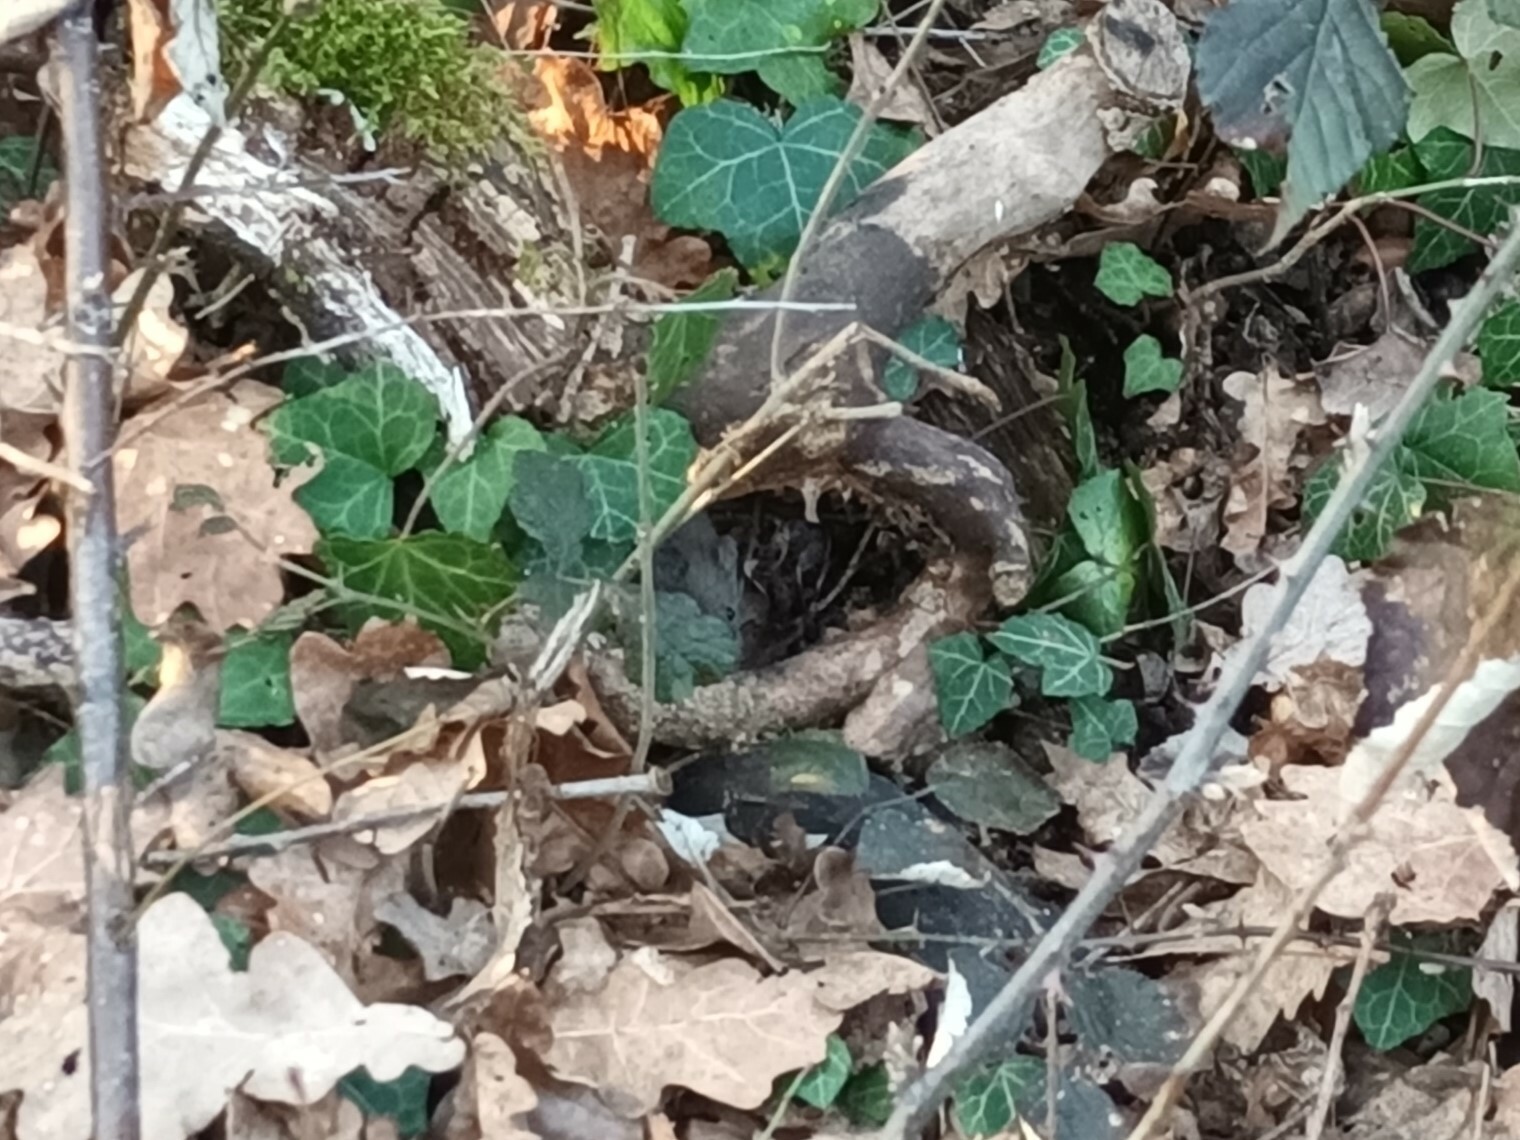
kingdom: Animalia
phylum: Chordata
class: Mammalia
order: Rodentia
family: Cricetidae
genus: Myodes
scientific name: Myodes glareolus
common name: Bank vole
